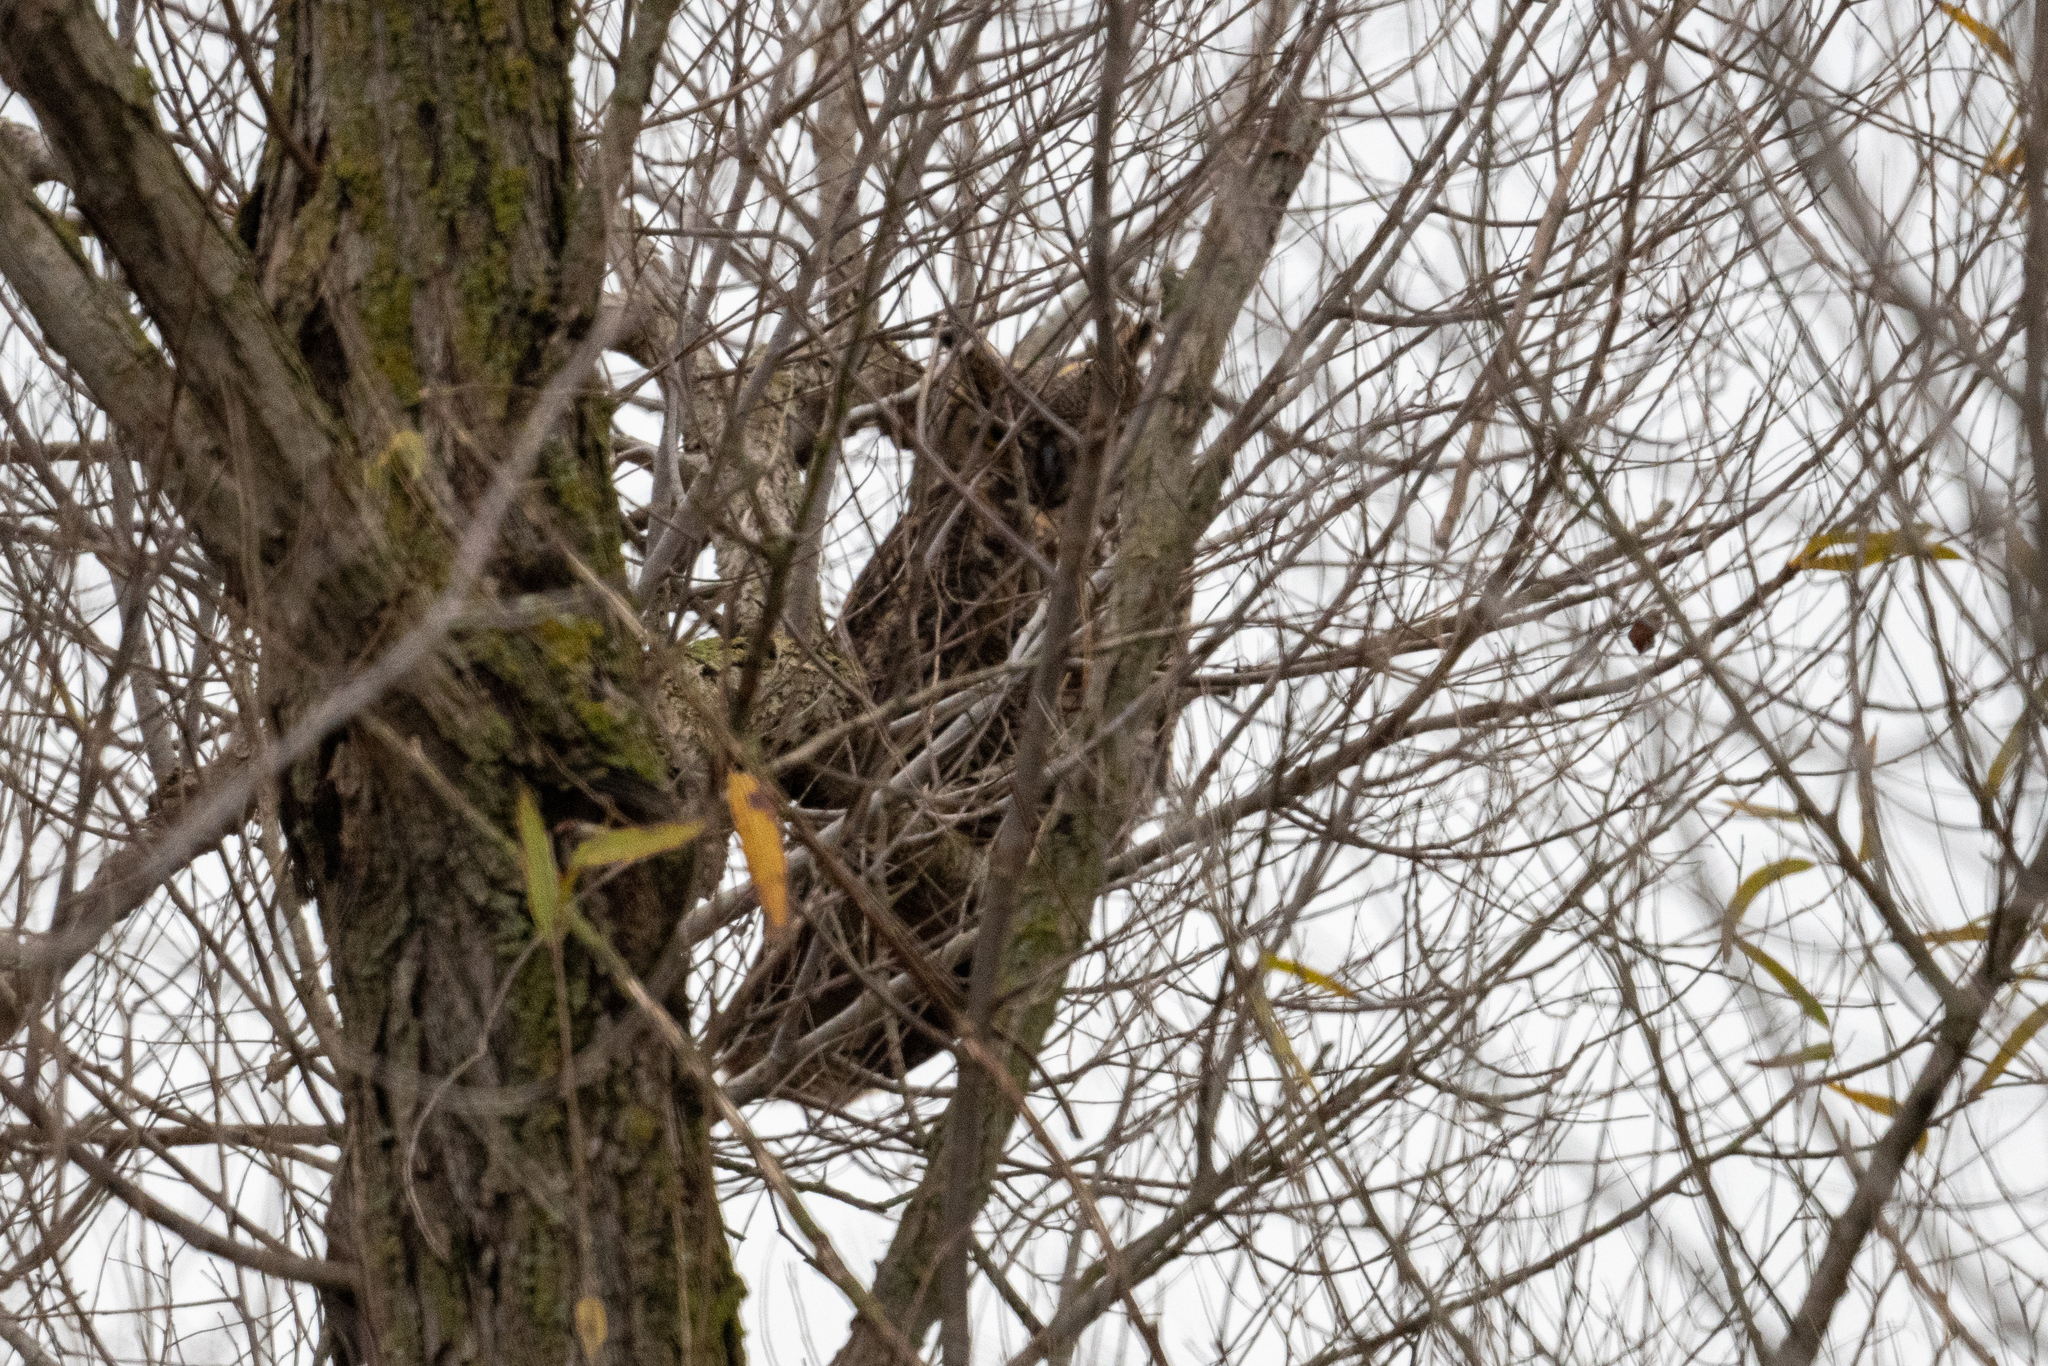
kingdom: Animalia
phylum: Chordata
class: Aves
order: Strigiformes
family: Strigidae
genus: Bubo
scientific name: Bubo virginianus
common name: Great horned owl
